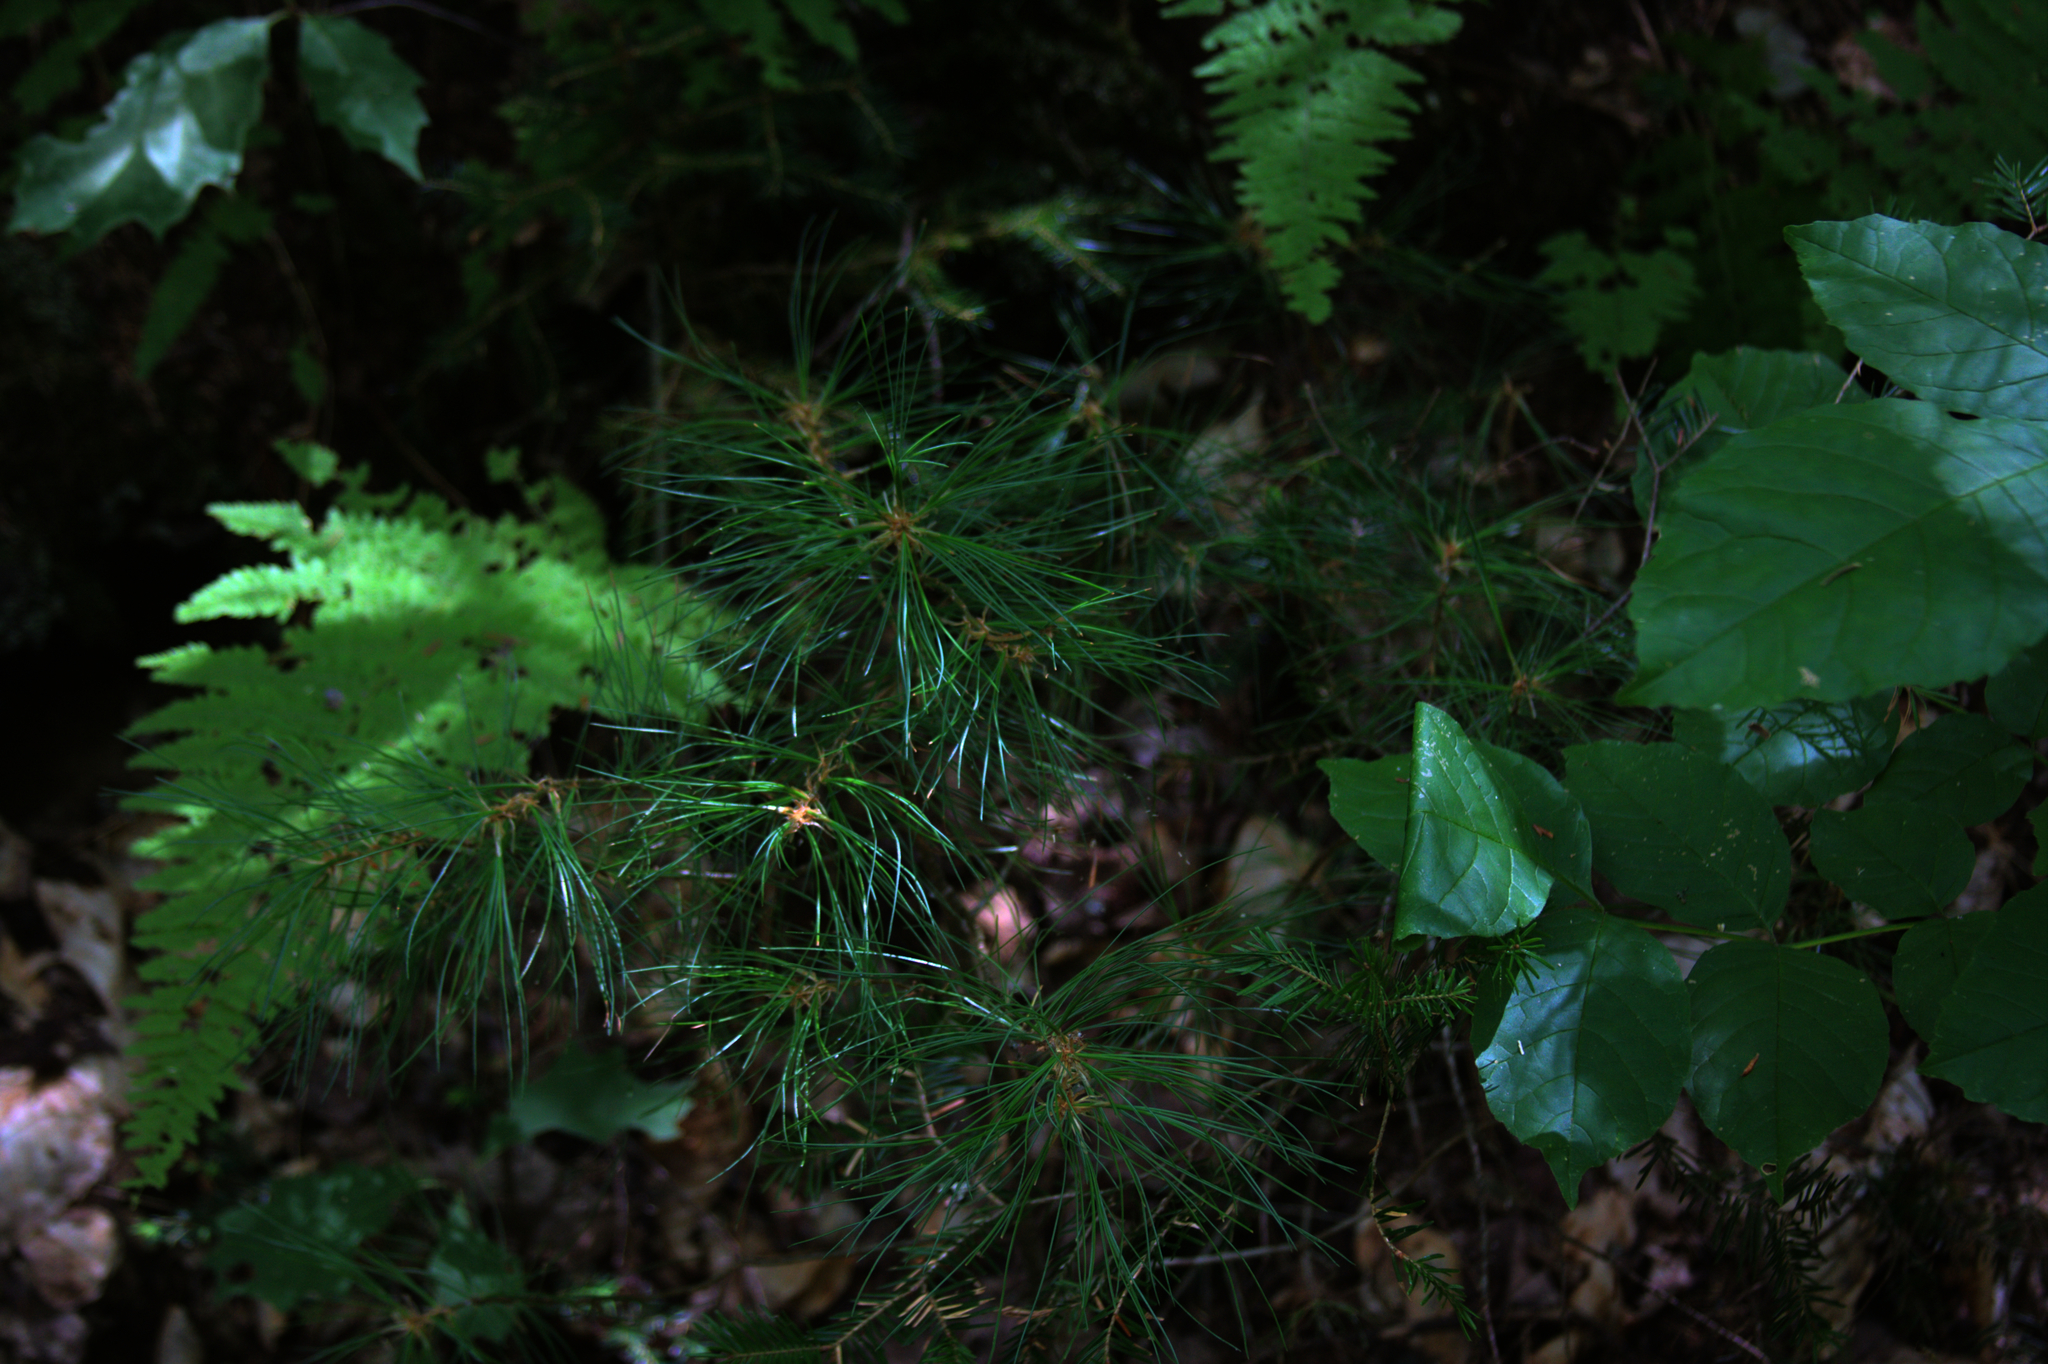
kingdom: Plantae
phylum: Tracheophyta
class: Pinopsida
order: Pinales
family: Pinaceae
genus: Pinus
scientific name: Pinus strobus
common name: Weymouth pine
